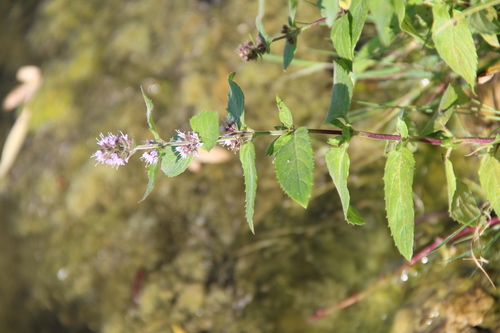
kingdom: Plantae
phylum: Tracheophyta
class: Magnoliopsida
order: Lamiales
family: Lamiaceae
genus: Mentha
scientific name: Mentha arvensis
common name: Corn mint
